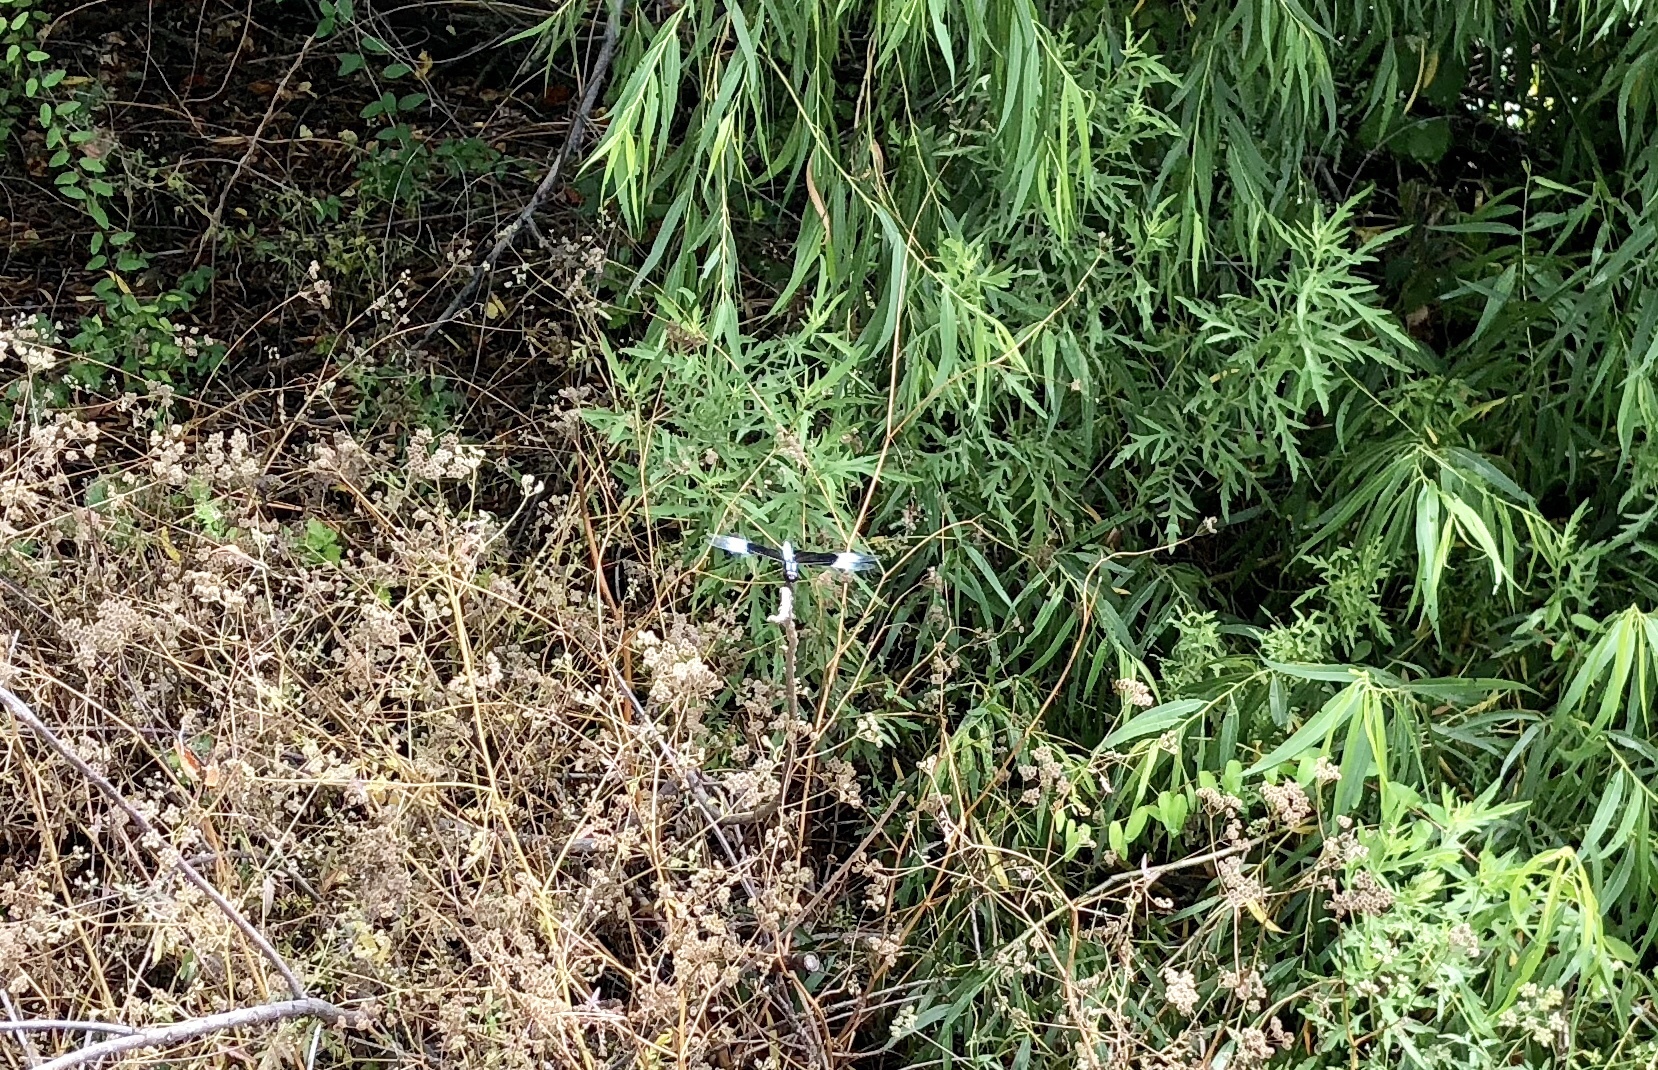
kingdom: Animalia
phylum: Arthropoda
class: Insecta
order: Odonata
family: Libellulidae
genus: Libellula
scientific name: Libellula luctuosa
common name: Widow skimmer
